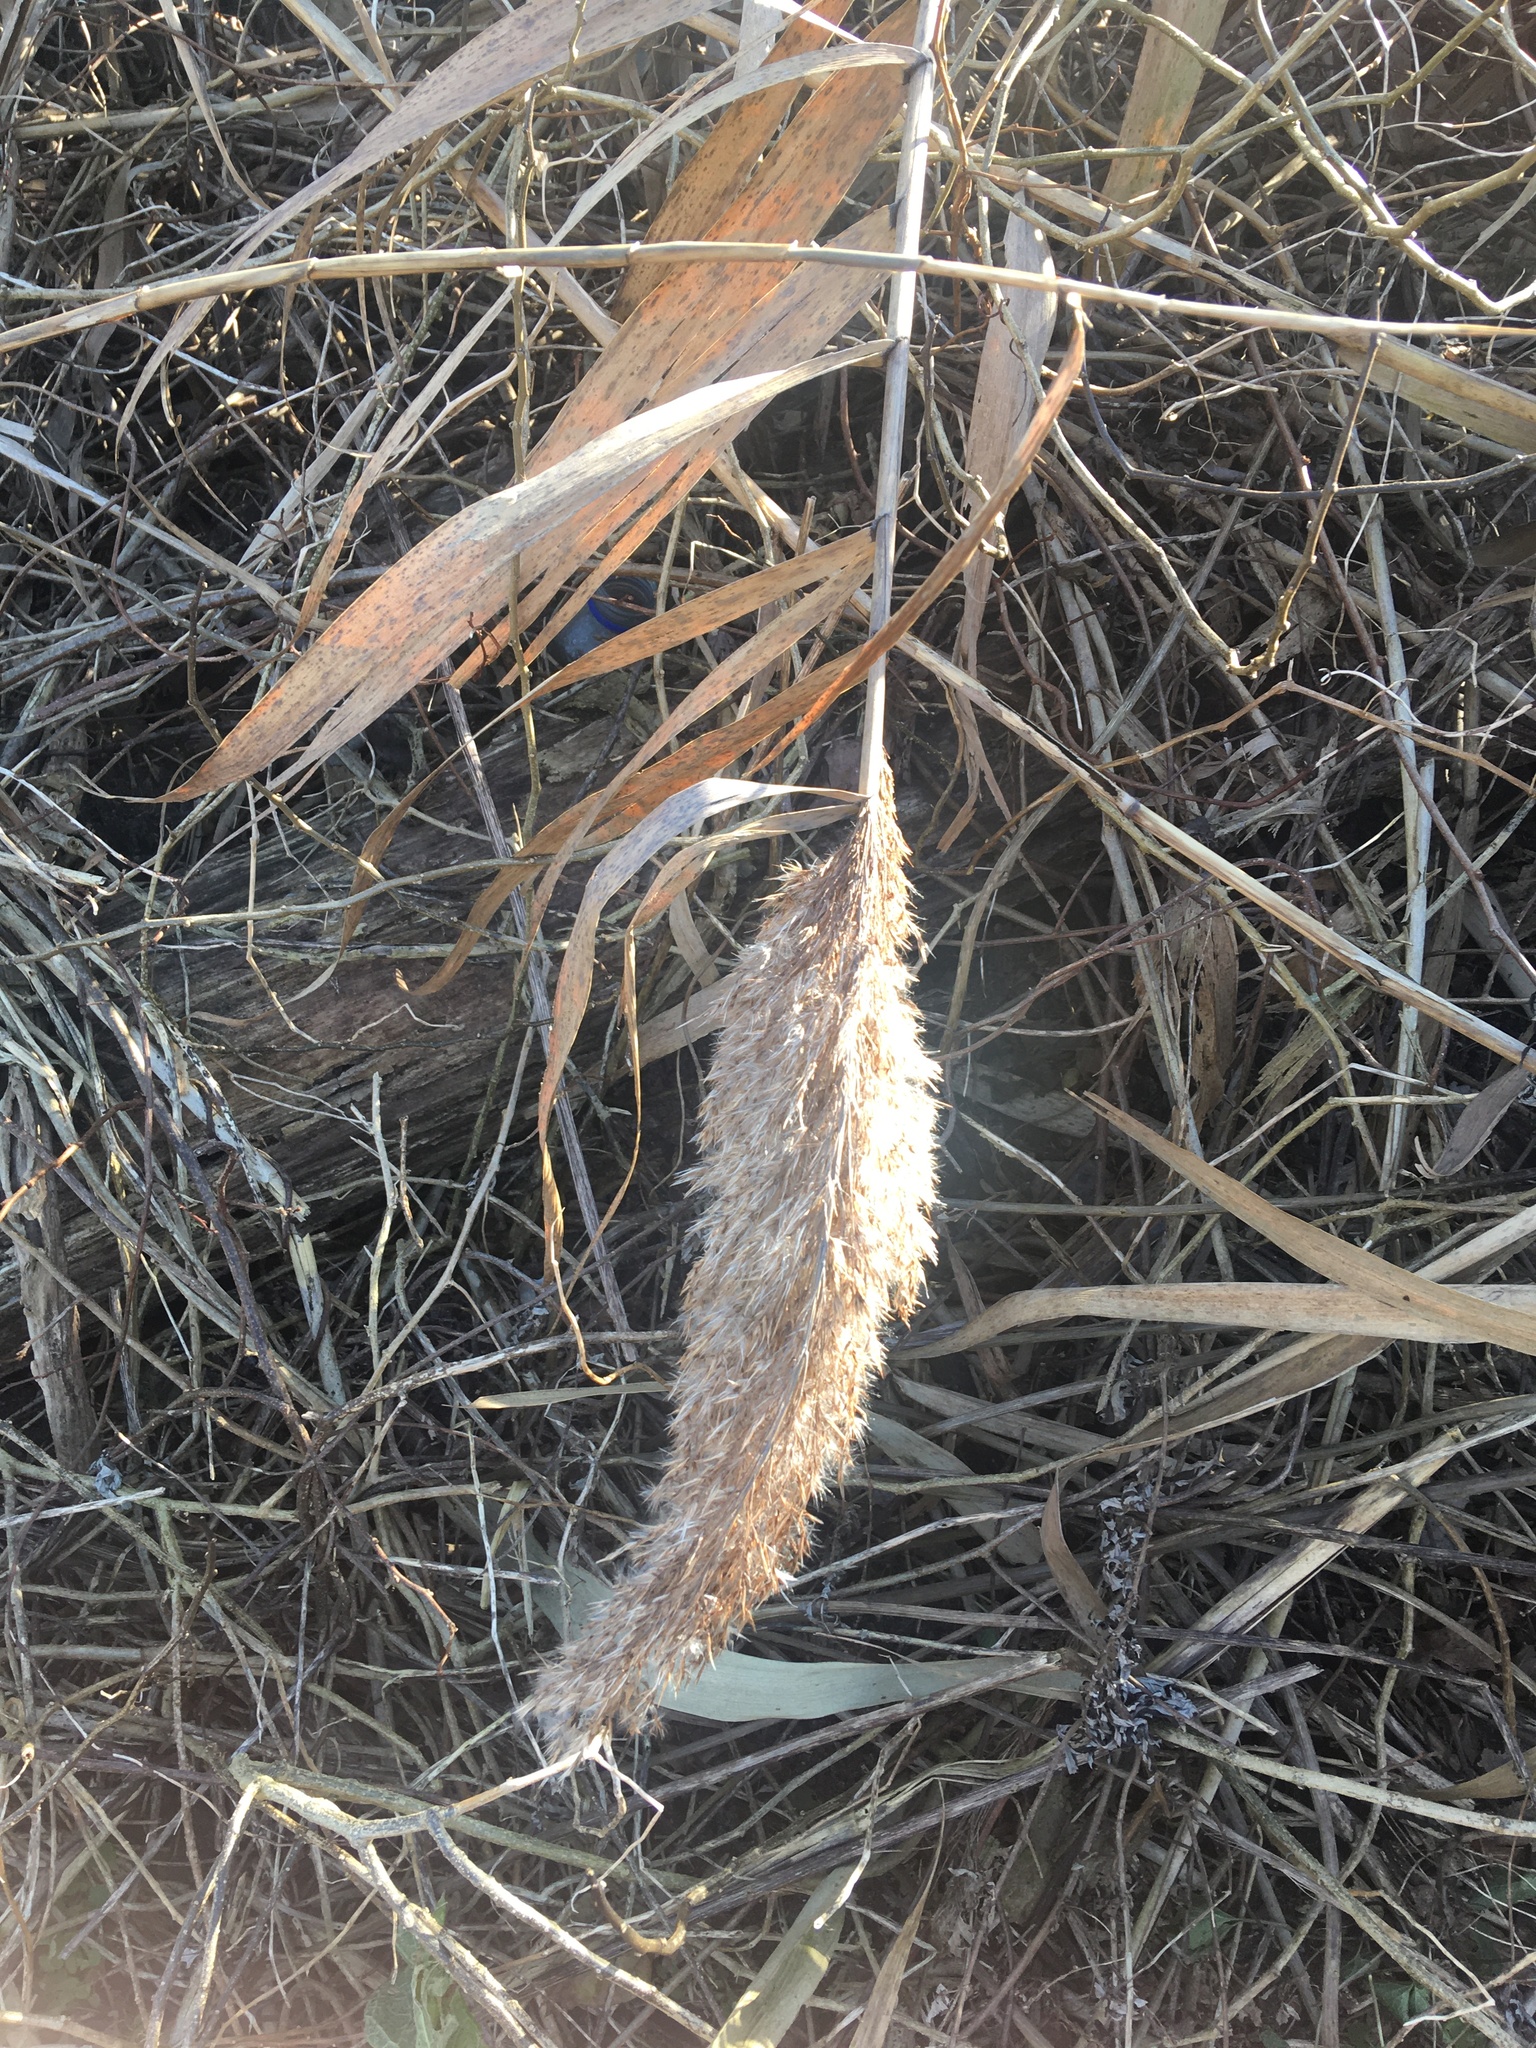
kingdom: Plantae
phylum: Tracheophyta
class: Liliopsida
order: Poales
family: Poaceae
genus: Phragmites
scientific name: Phragmites australis
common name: Common reed
